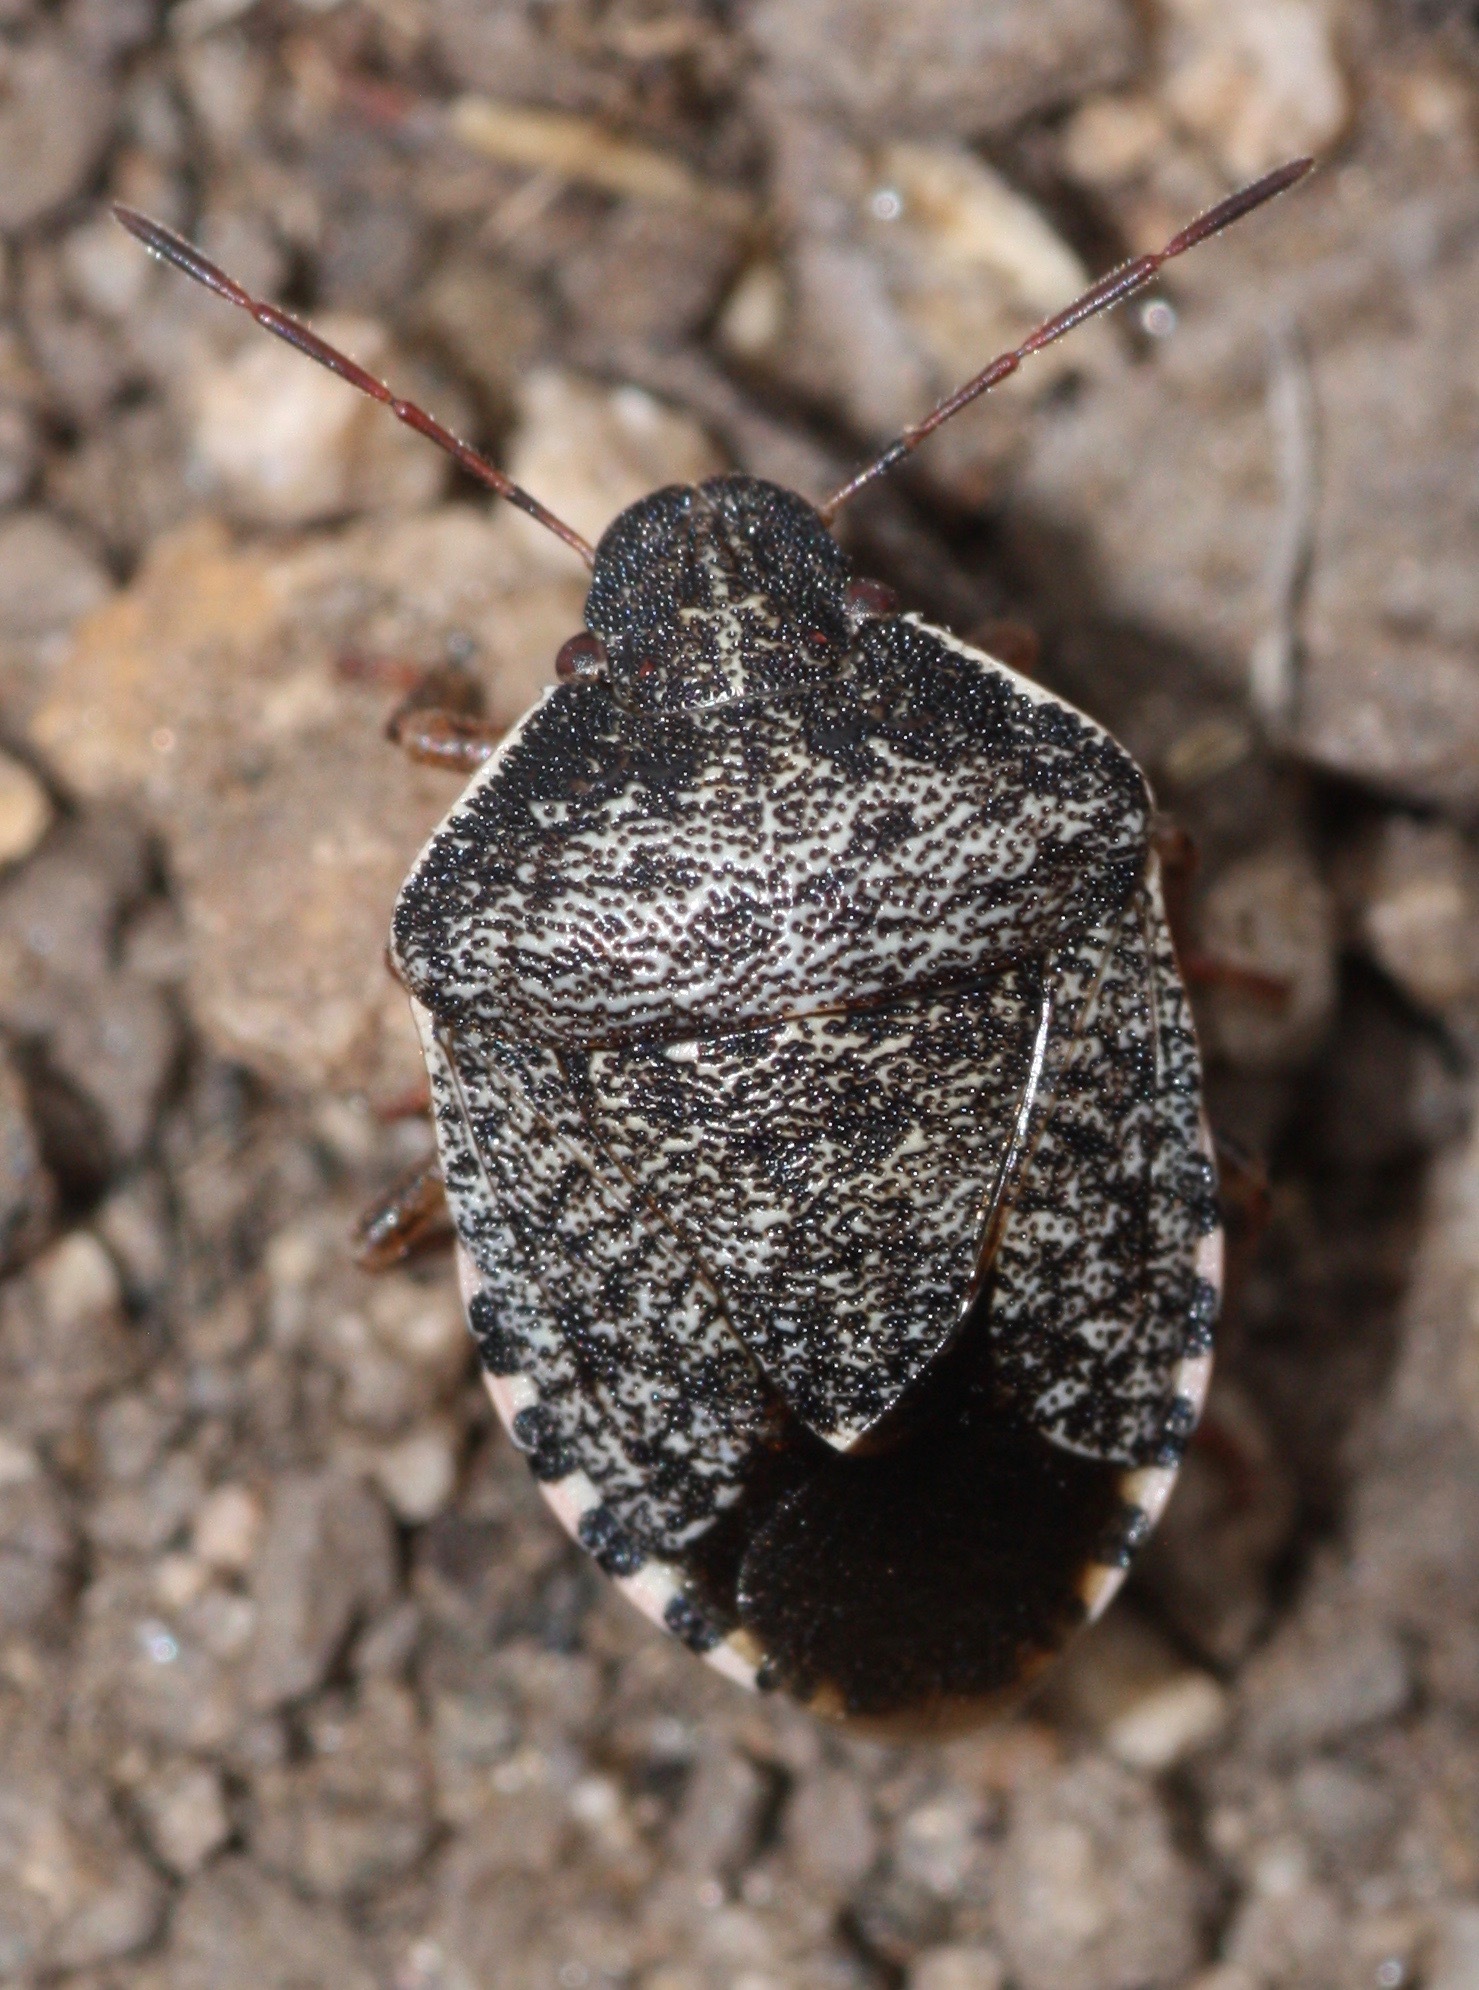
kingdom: Animalia
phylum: Arthropoda
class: Insecta
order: Hemiptera
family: Pentatomidae
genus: Holcostethus
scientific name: Holcostethus abbreviatus
